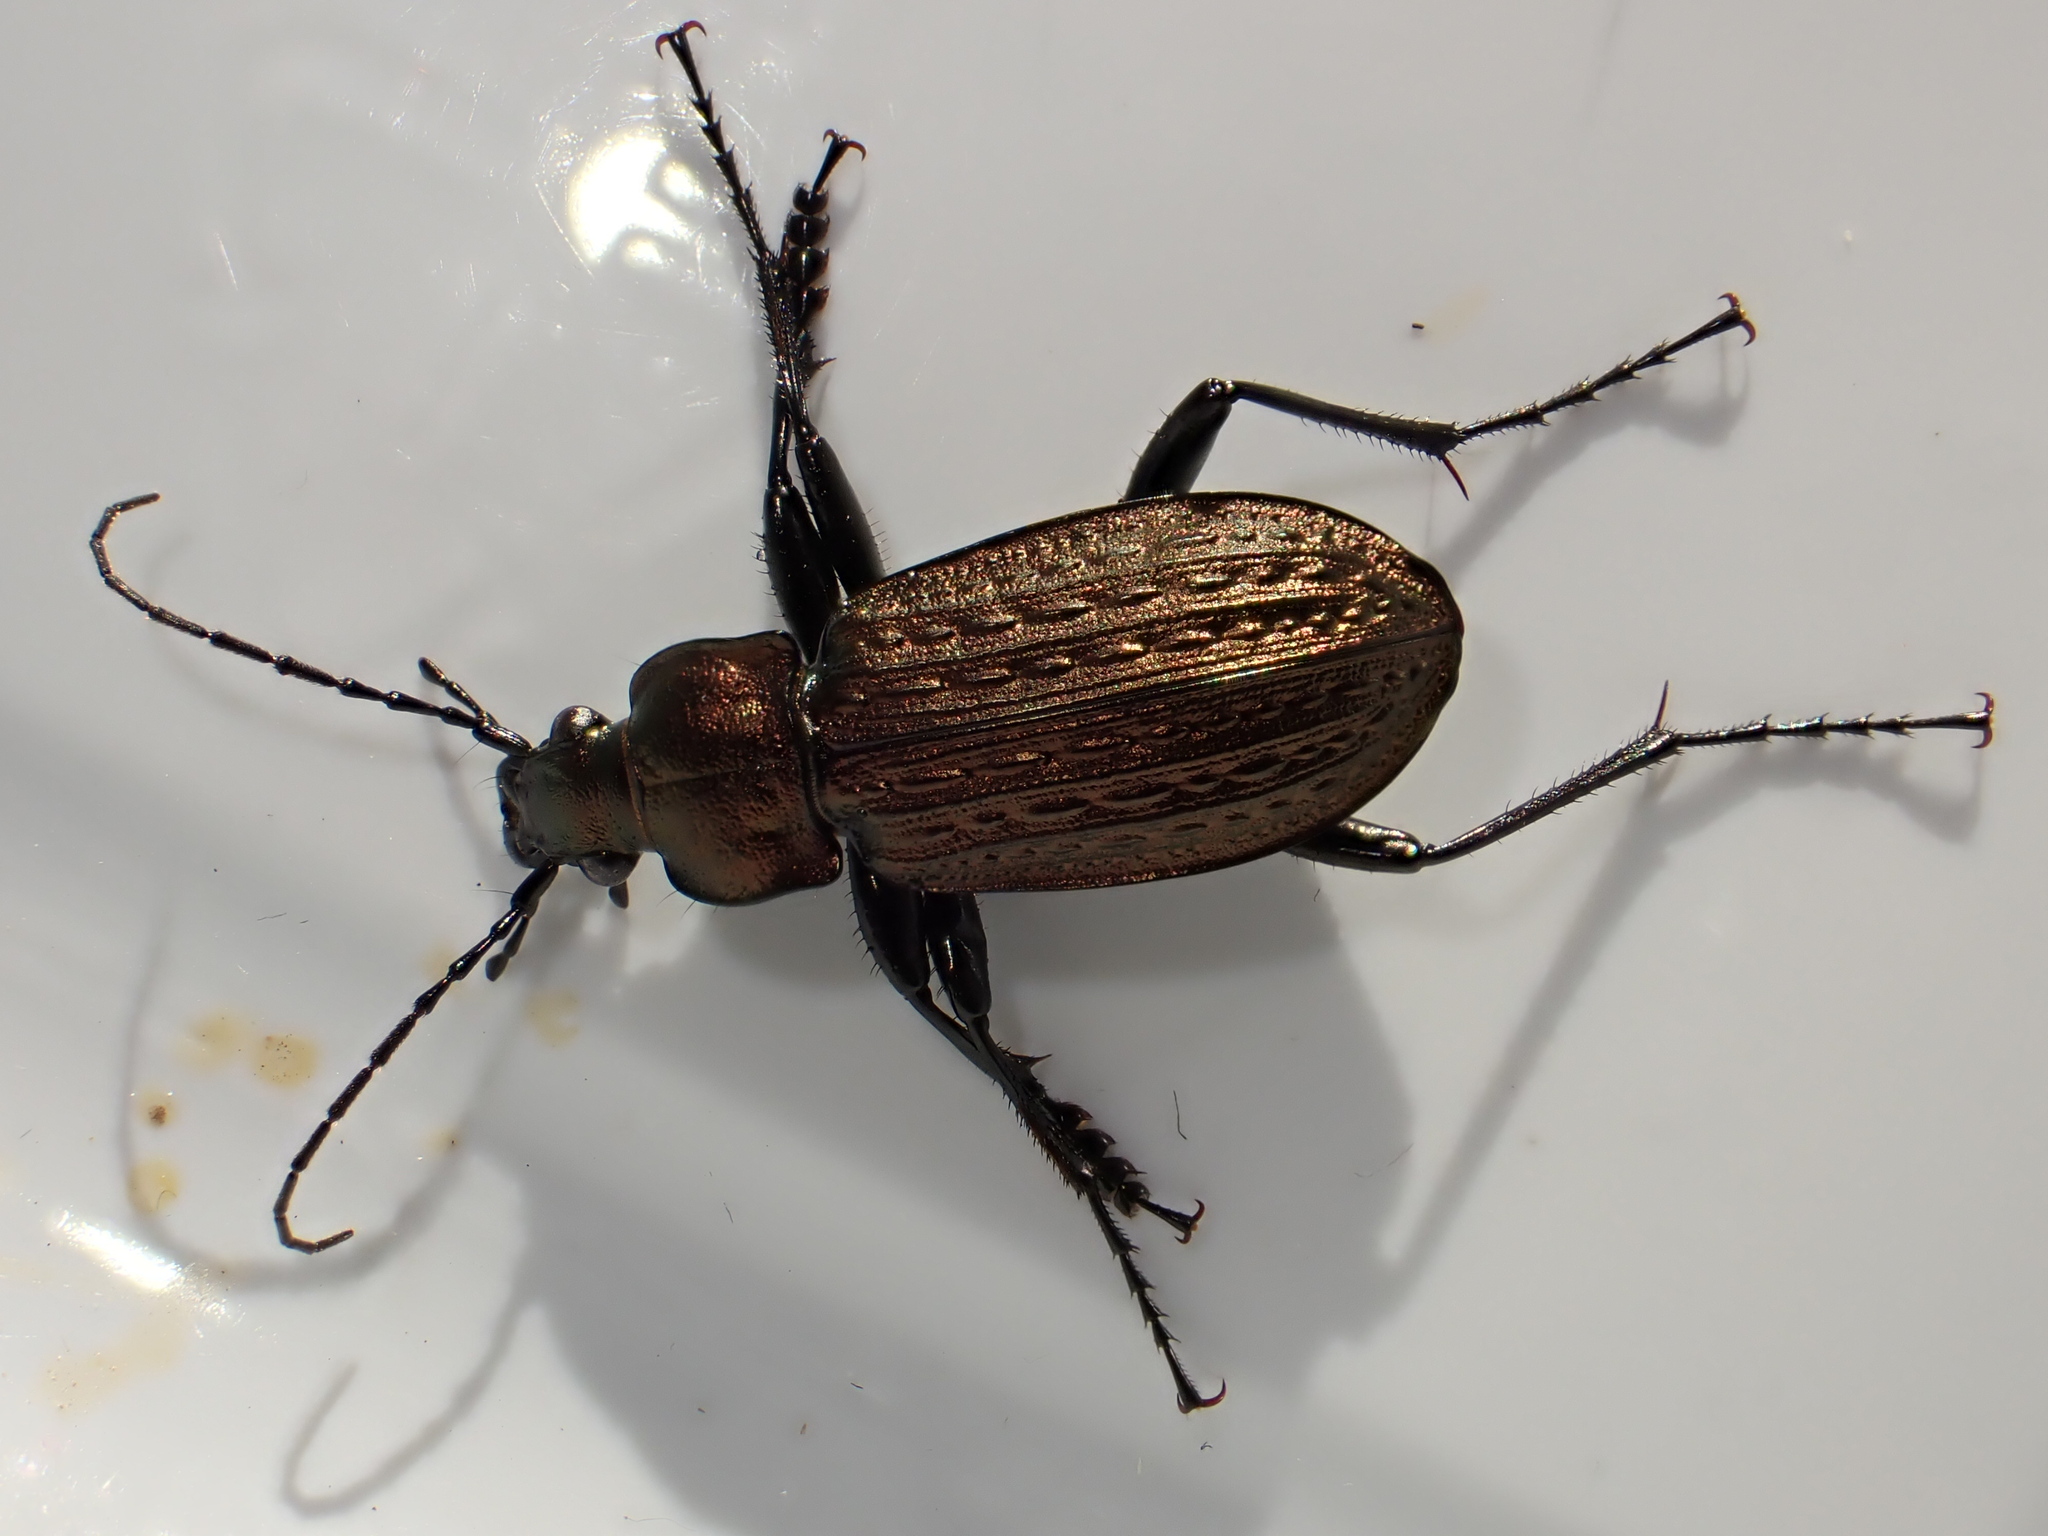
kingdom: Animalia
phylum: Arthropoda
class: Insecta
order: Coleoptera
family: Carabidae
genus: Carabus
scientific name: Carabus granulatus
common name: Granulate ground beetle
